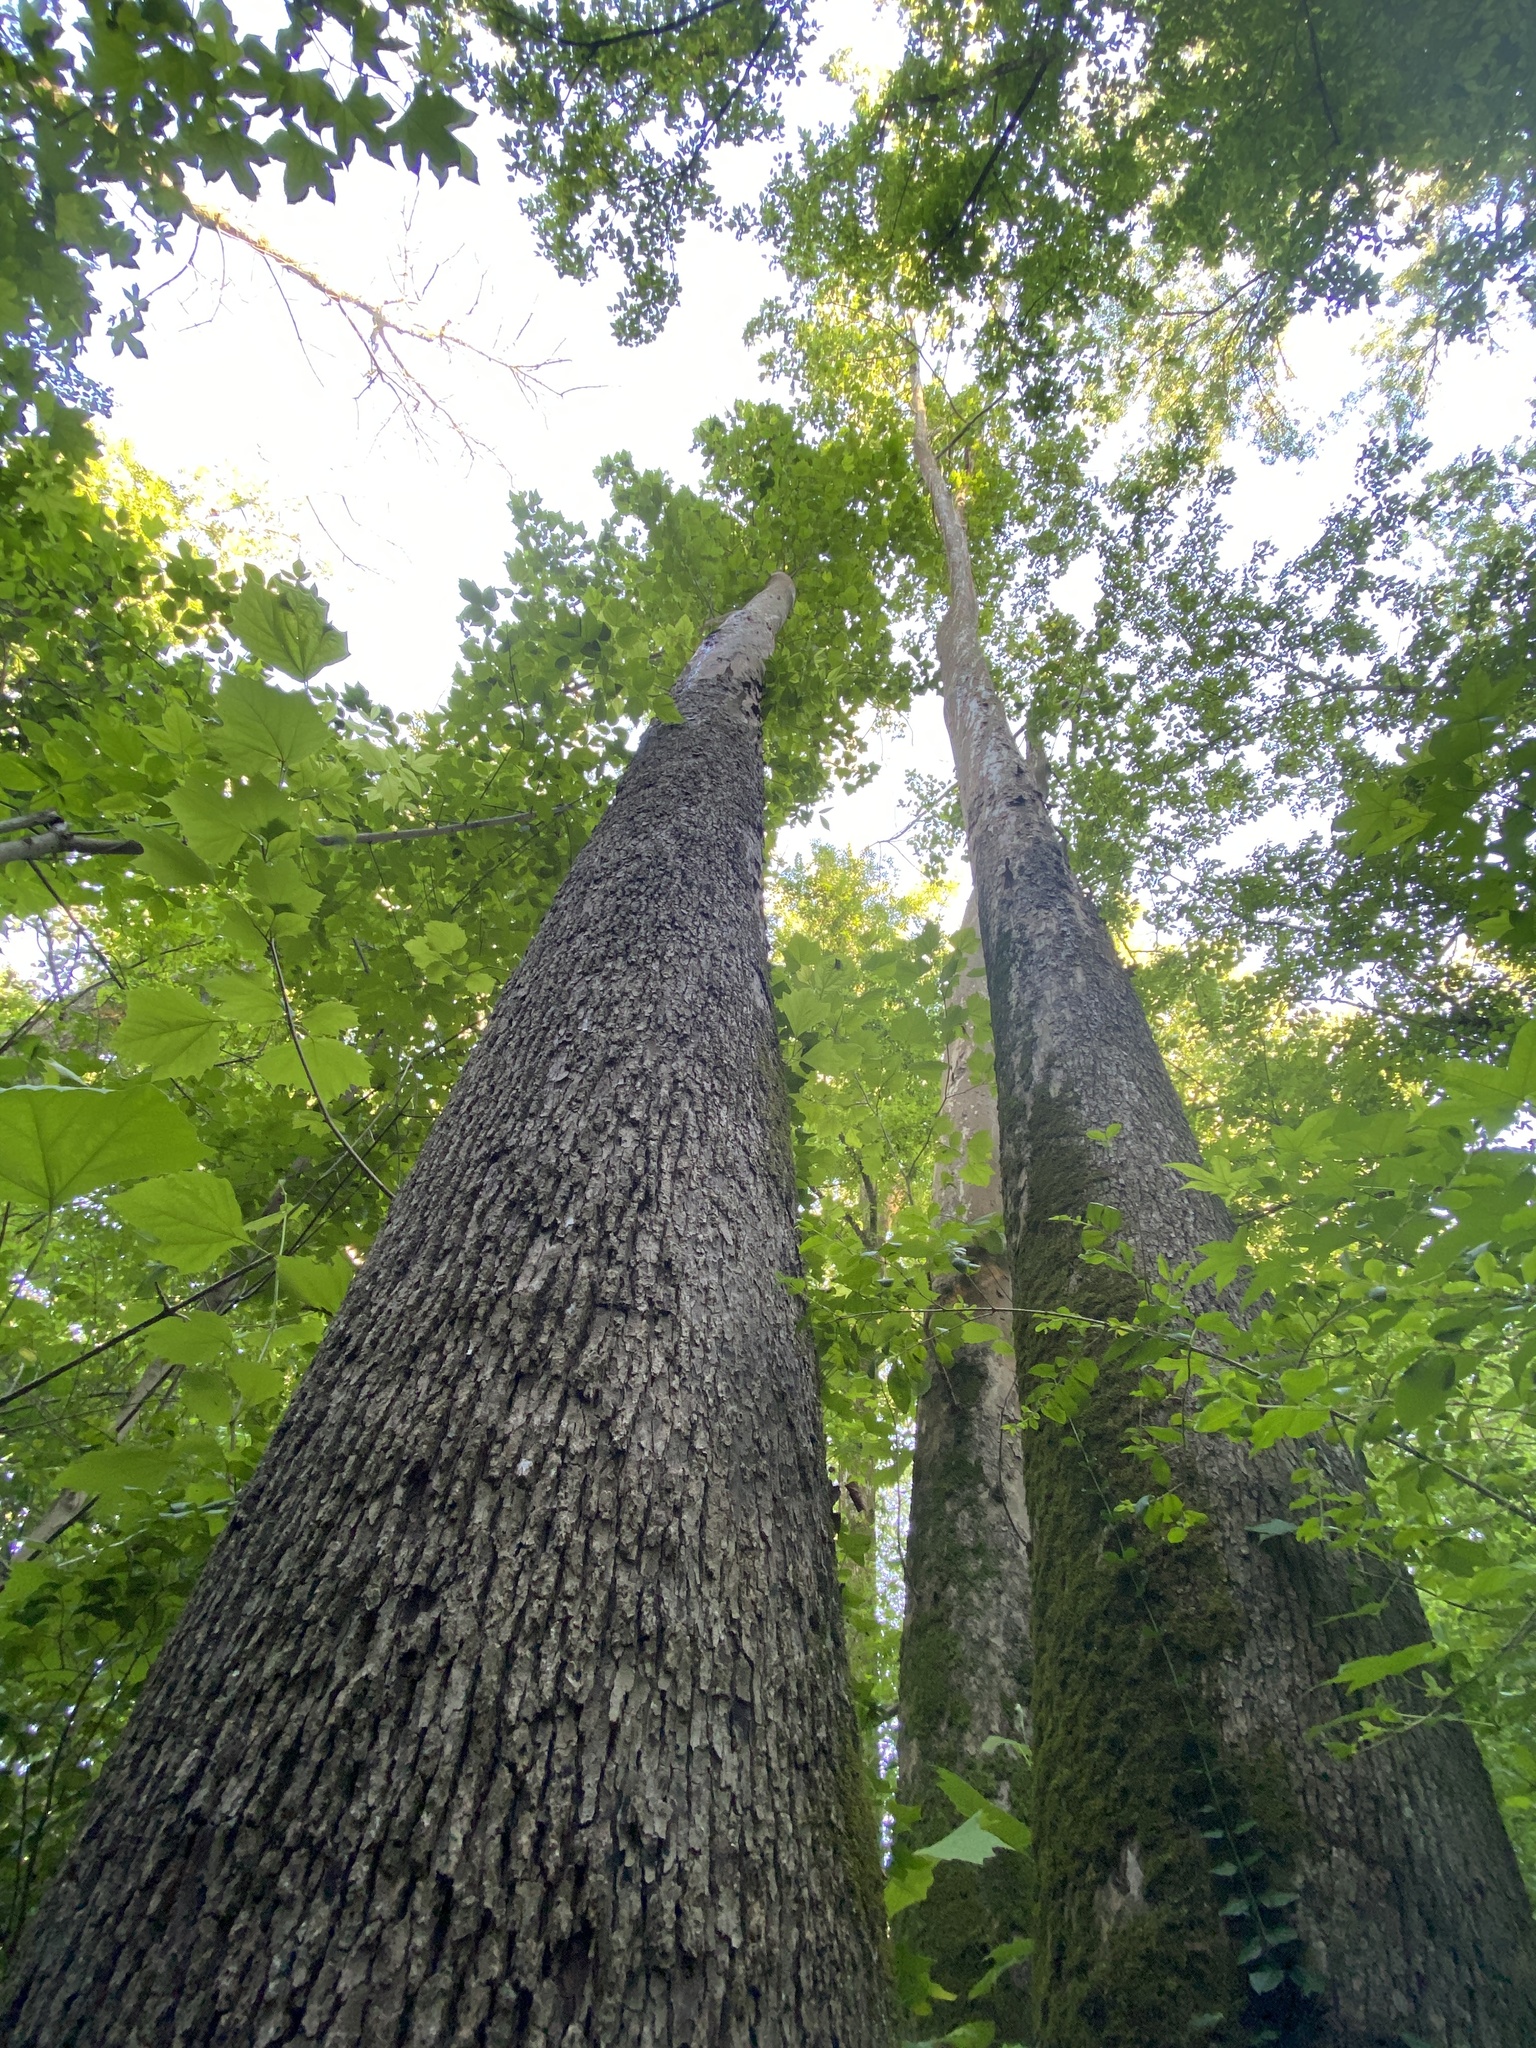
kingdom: Plantae
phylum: Tracheophyta
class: Magnoliopsida
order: Proteales
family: Platanaceae
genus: Platanus
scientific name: Platanus occidentalis
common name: American sycamore
